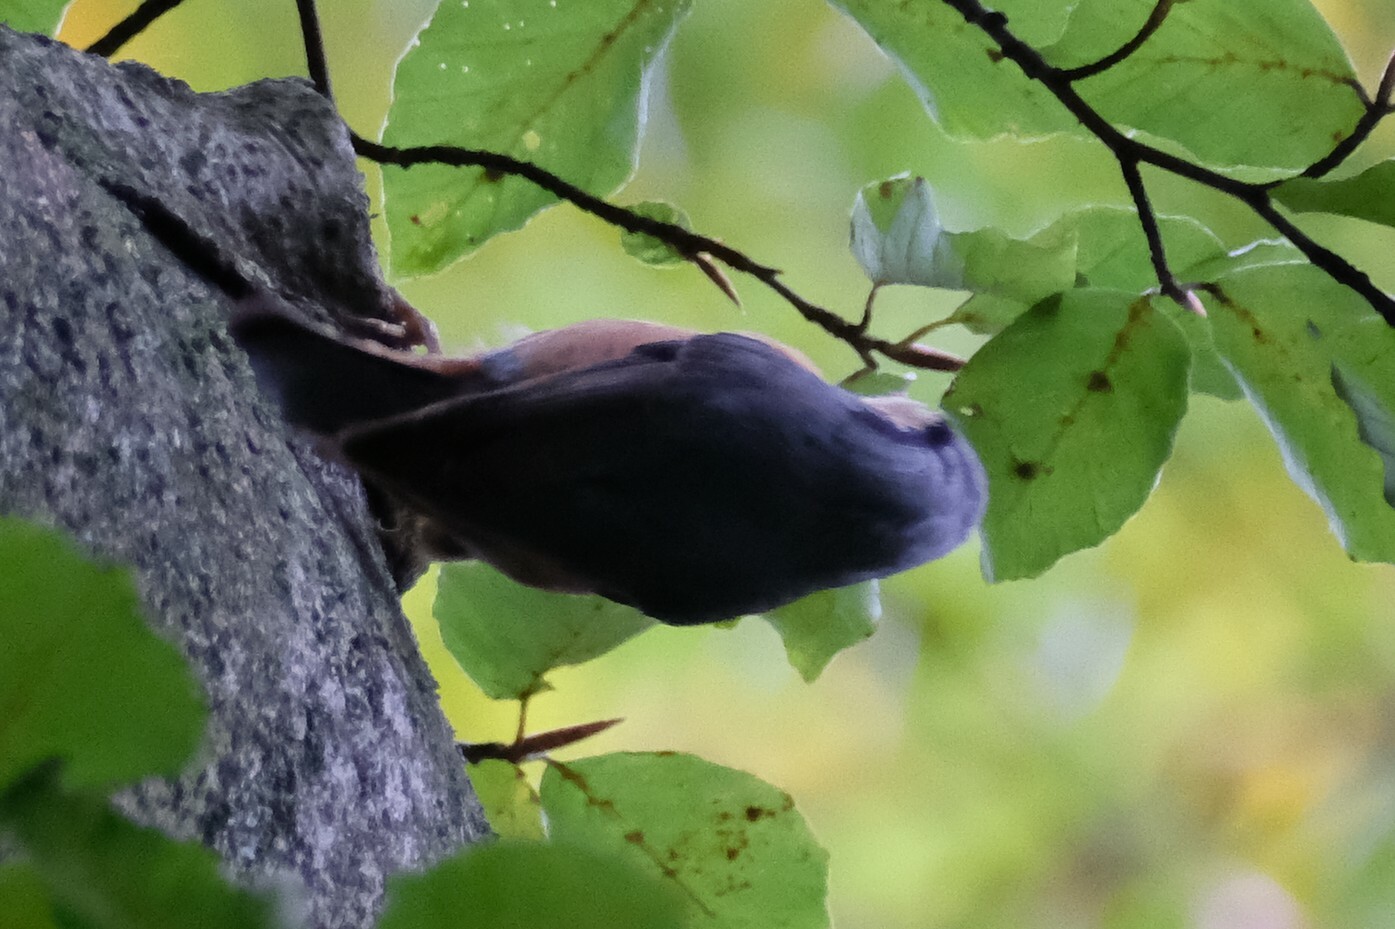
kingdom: Animalia
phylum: Chordata
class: Aves
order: Passeriformes
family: Sittidae
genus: Sitta
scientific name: Sitta europaea
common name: Eurasian nuthatch
